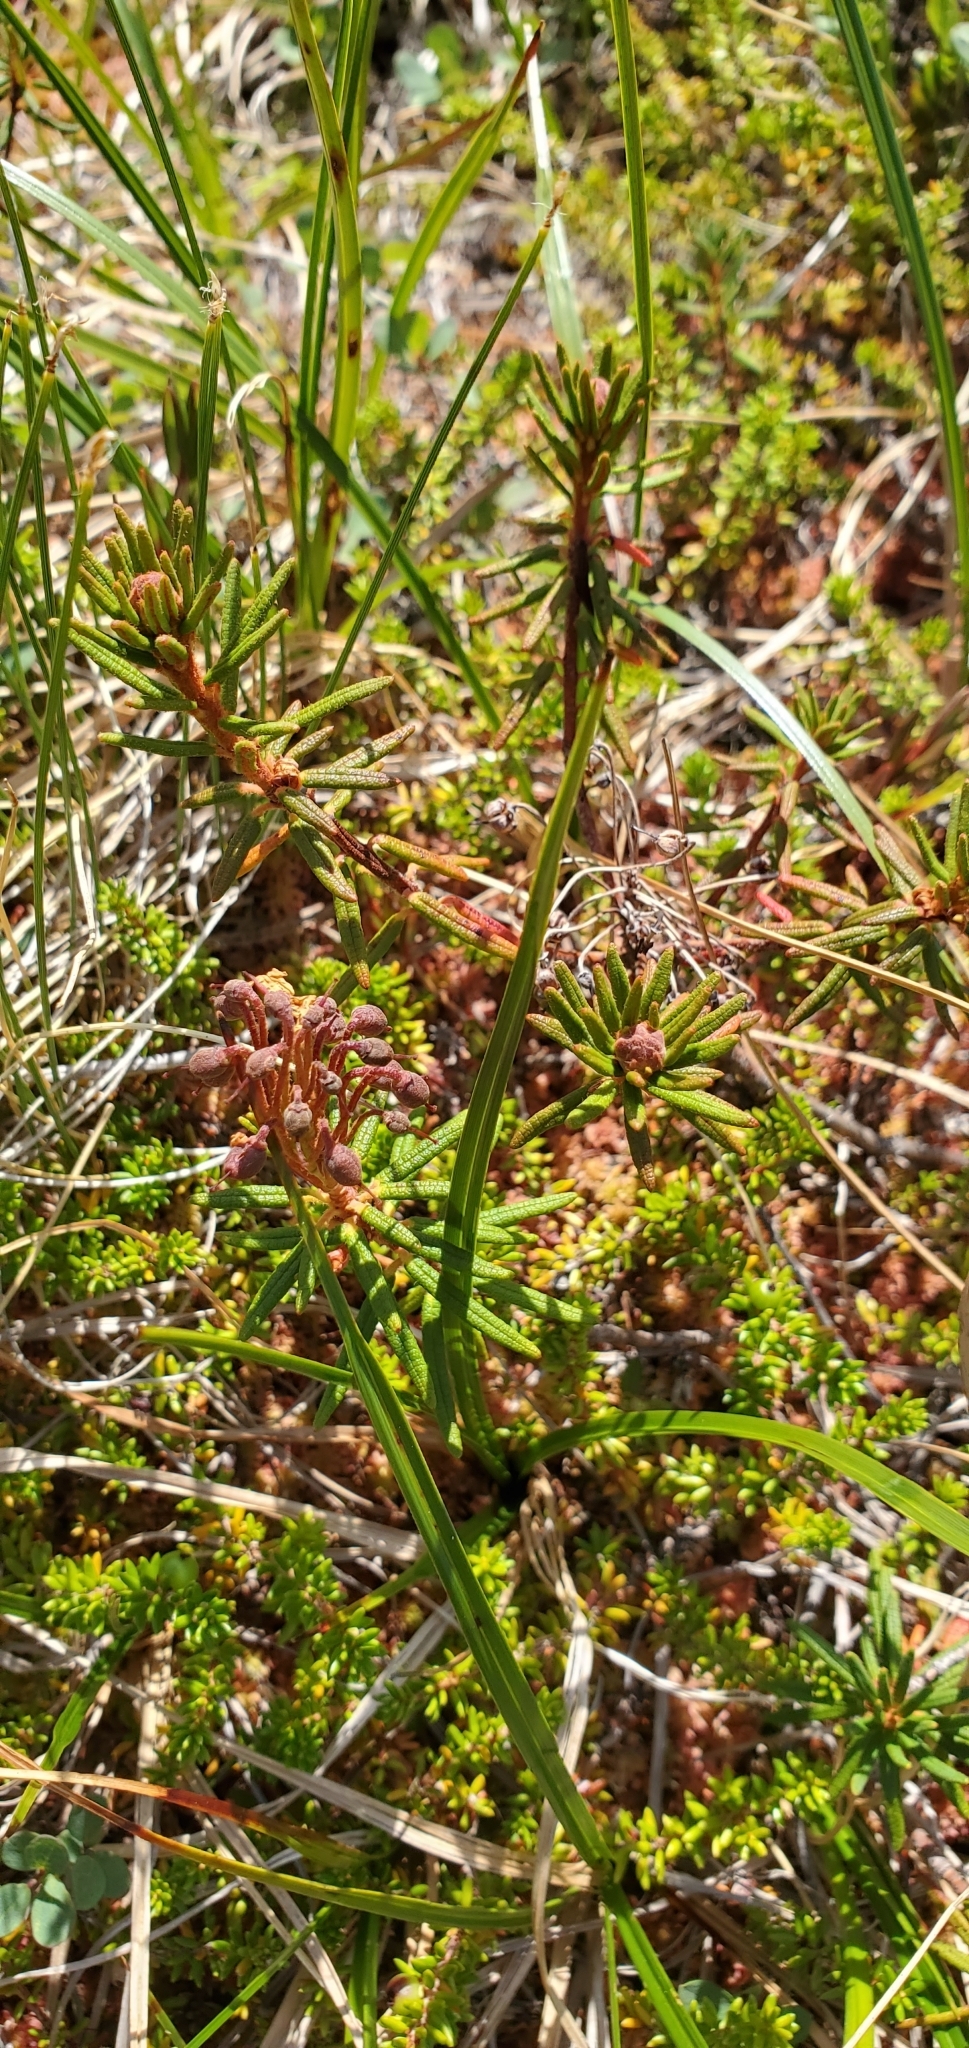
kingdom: Plantae
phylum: Tracheophyta
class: Magnoliopsida
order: Ericales
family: Ericaceae
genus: Rhododendron
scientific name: Rhododendron tomentosum
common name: Marsh labrador tea
